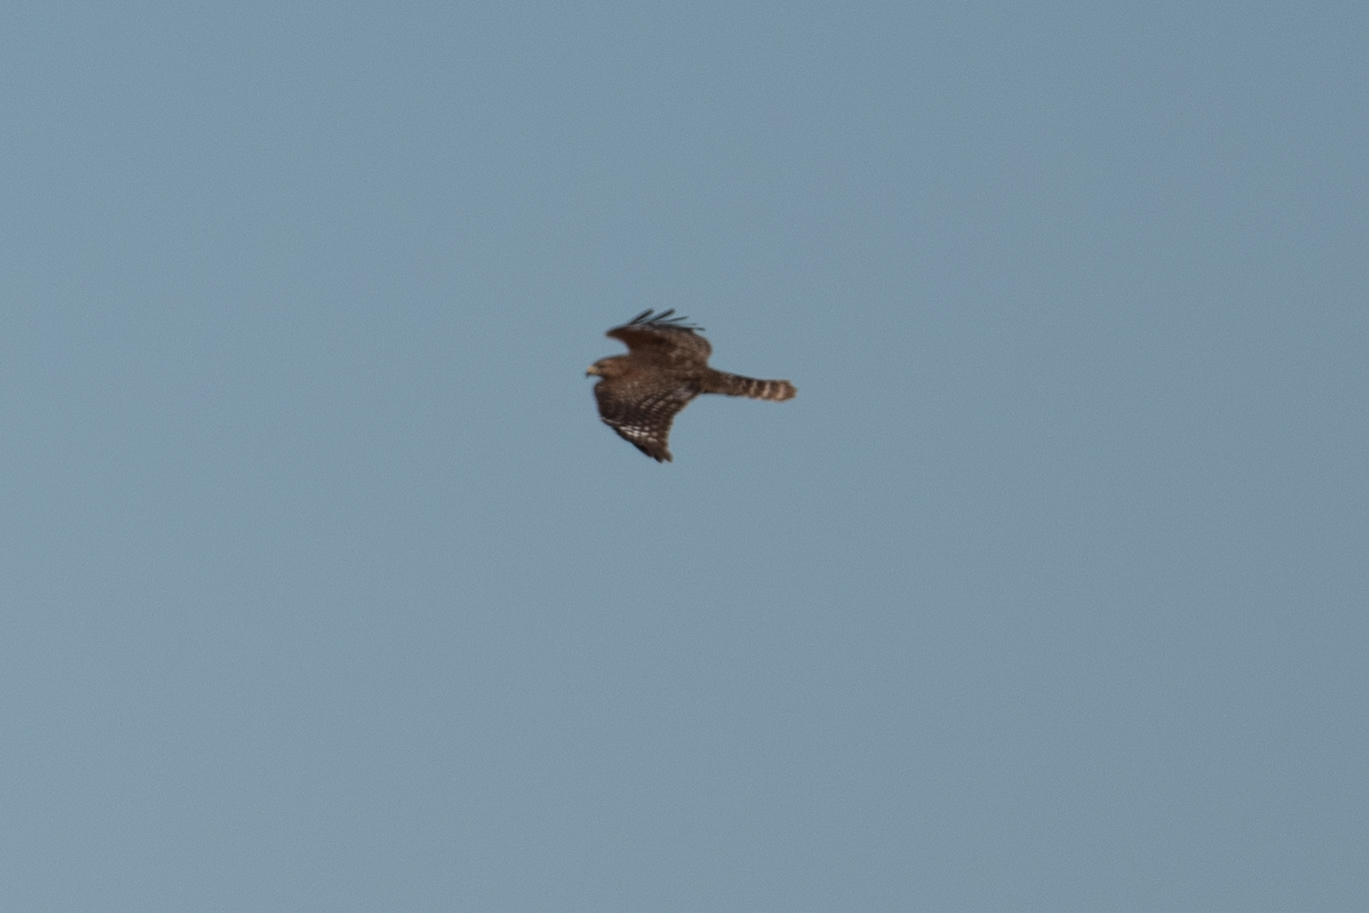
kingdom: Animalia
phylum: Chordata
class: Aves
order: Accipitriformes
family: Accipitridae
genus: Buteo
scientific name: Buteo lineatus
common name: Red-shouldered hawk
